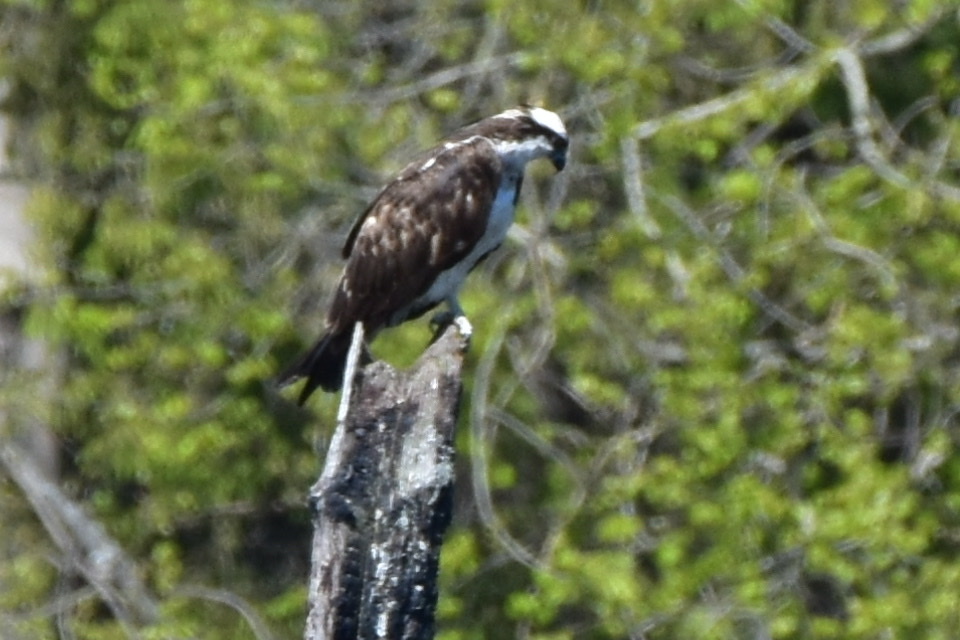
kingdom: Animalia
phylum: Chordata
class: Aves
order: Accipitriformes
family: Pandionidae
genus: Pandion
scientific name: Pandion haliaetus
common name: Osprey
